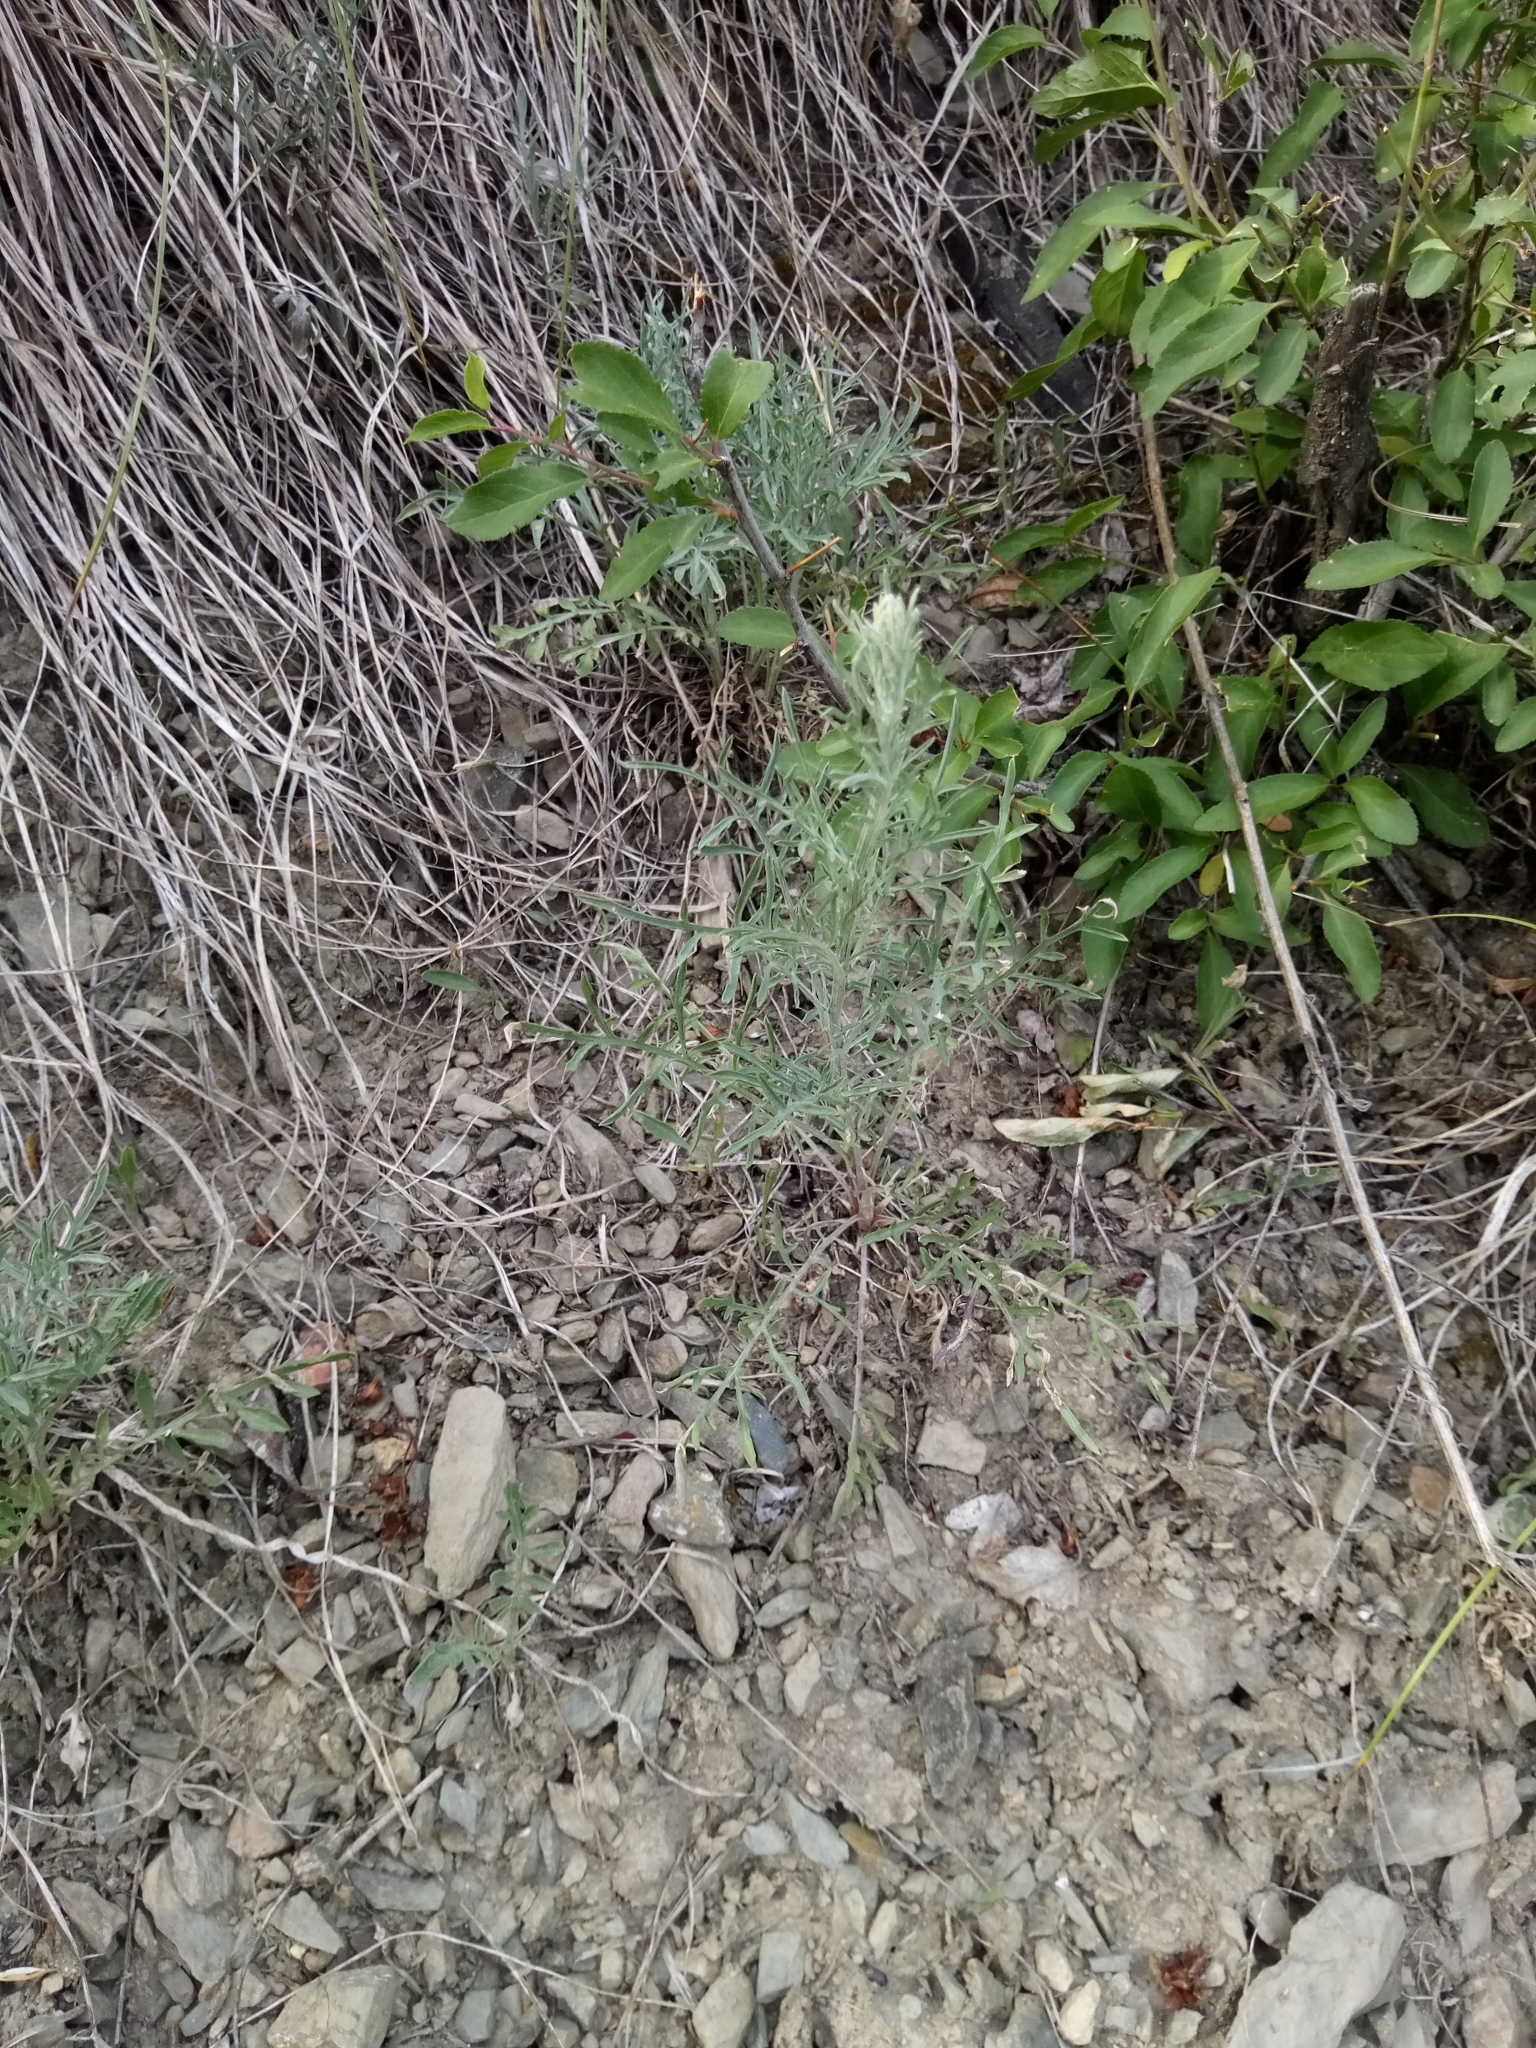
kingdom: Plantae
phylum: Tracheophyta
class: Magnoliopsida
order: Asterales
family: Asteraceae
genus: Centaurea
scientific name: Centaurea stoebe
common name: Spotted knapweed
